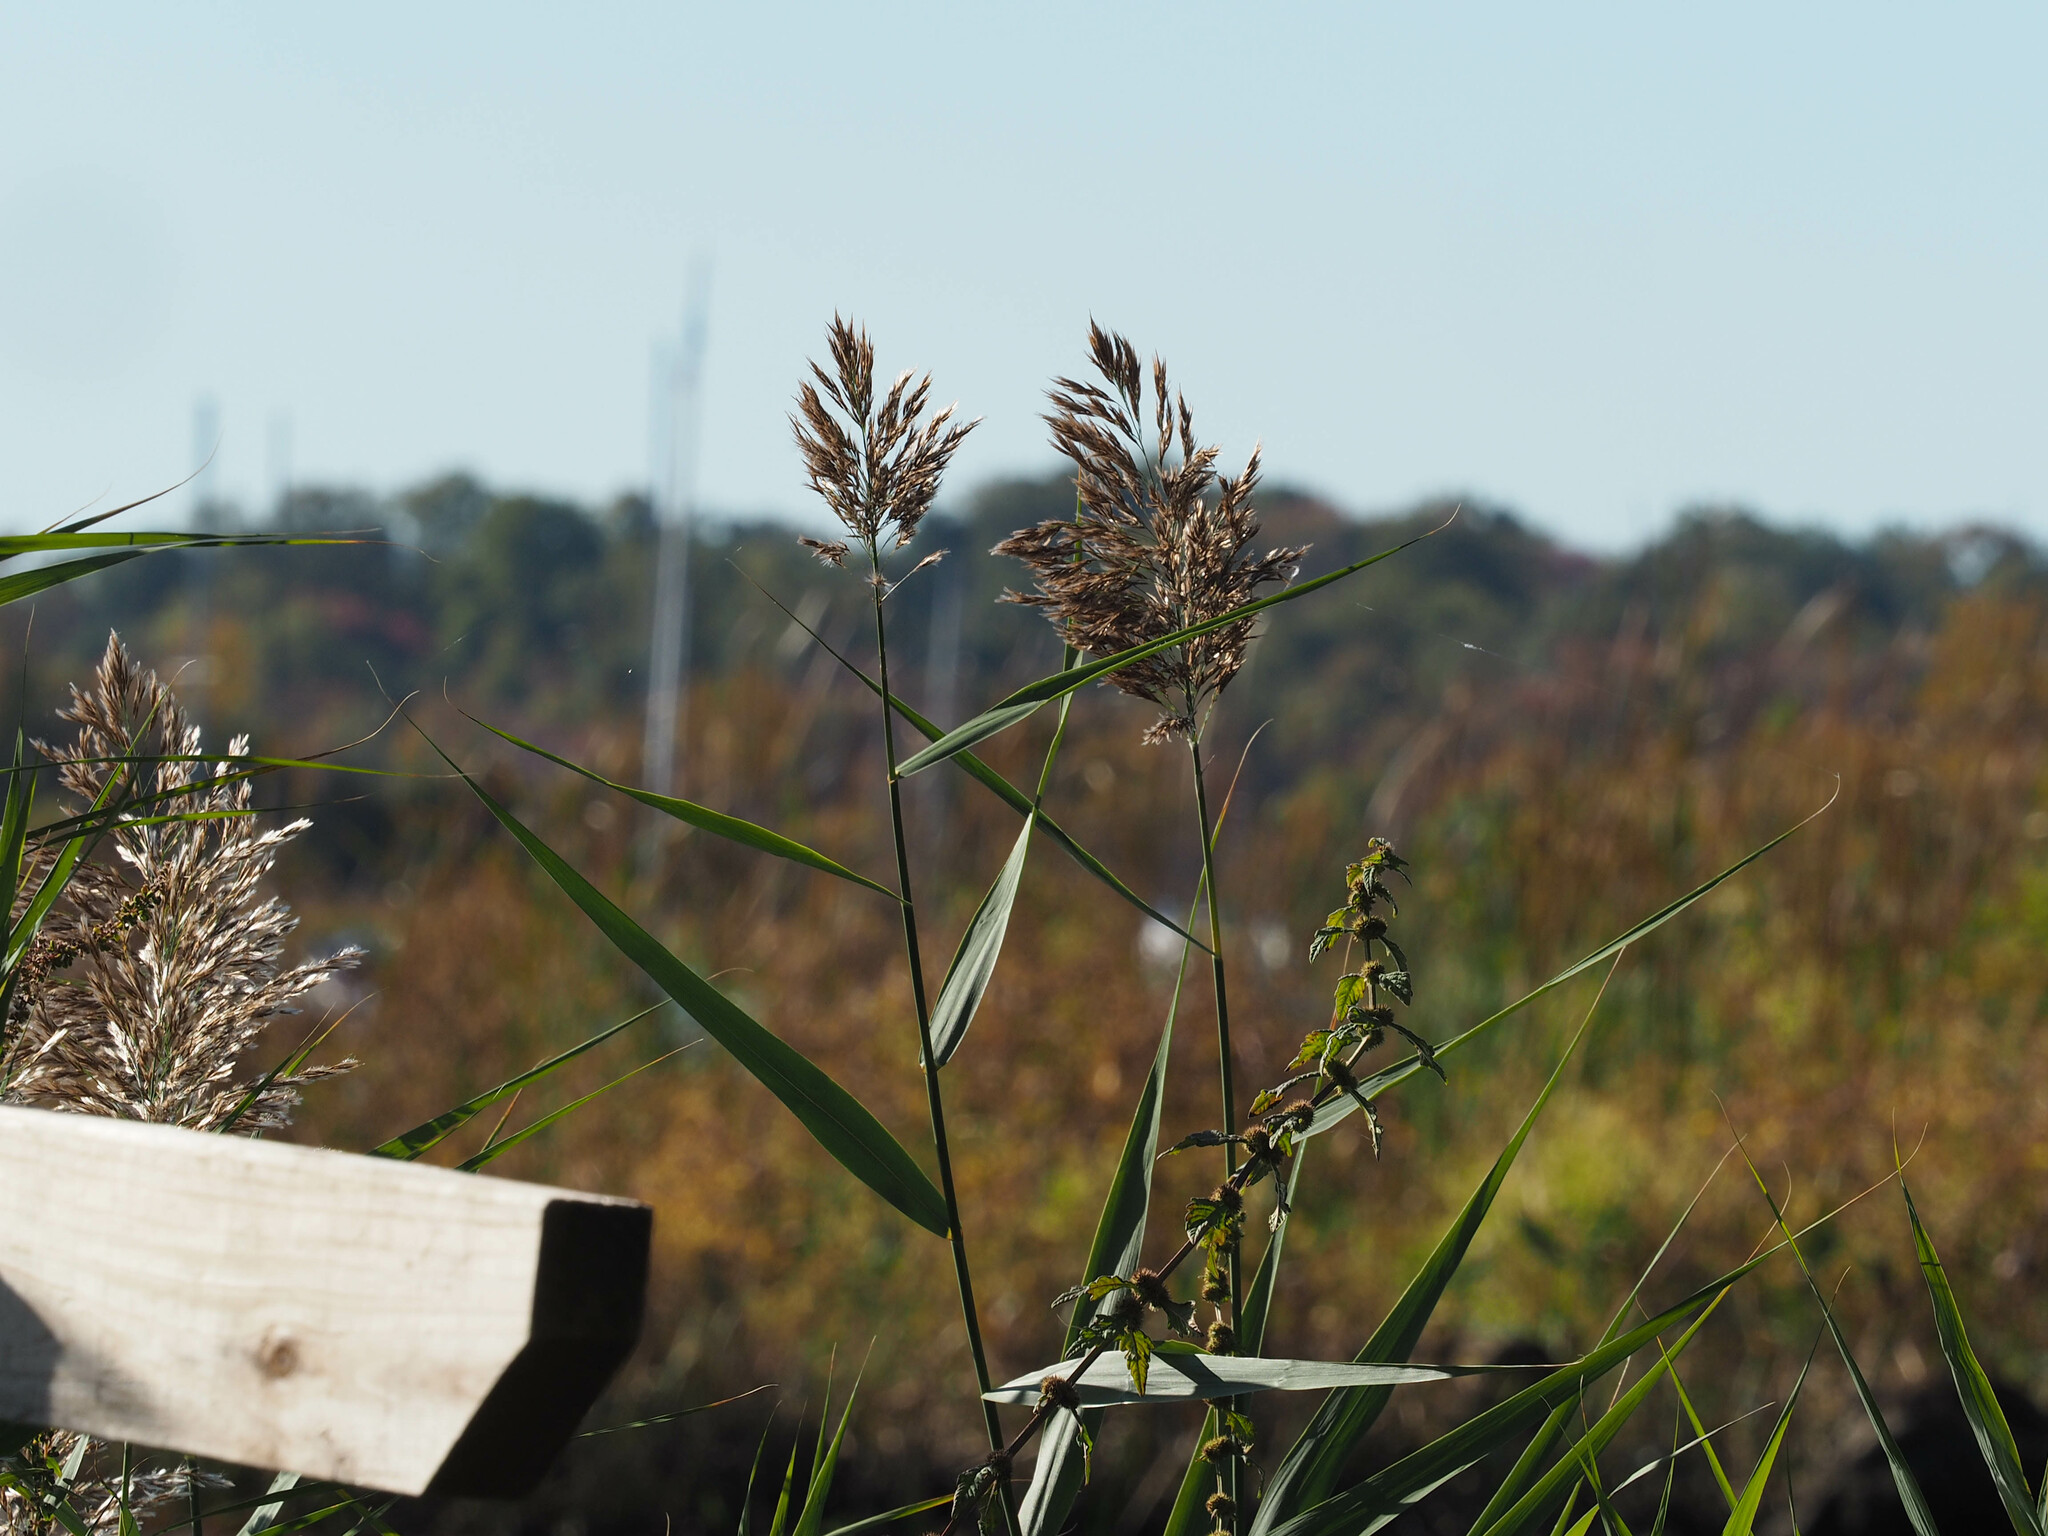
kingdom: Plantae
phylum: Tracheophyta
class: Liliopsida
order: Poales
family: Poaceae
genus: Phragmites
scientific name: Phragmites australis
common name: Common reed
